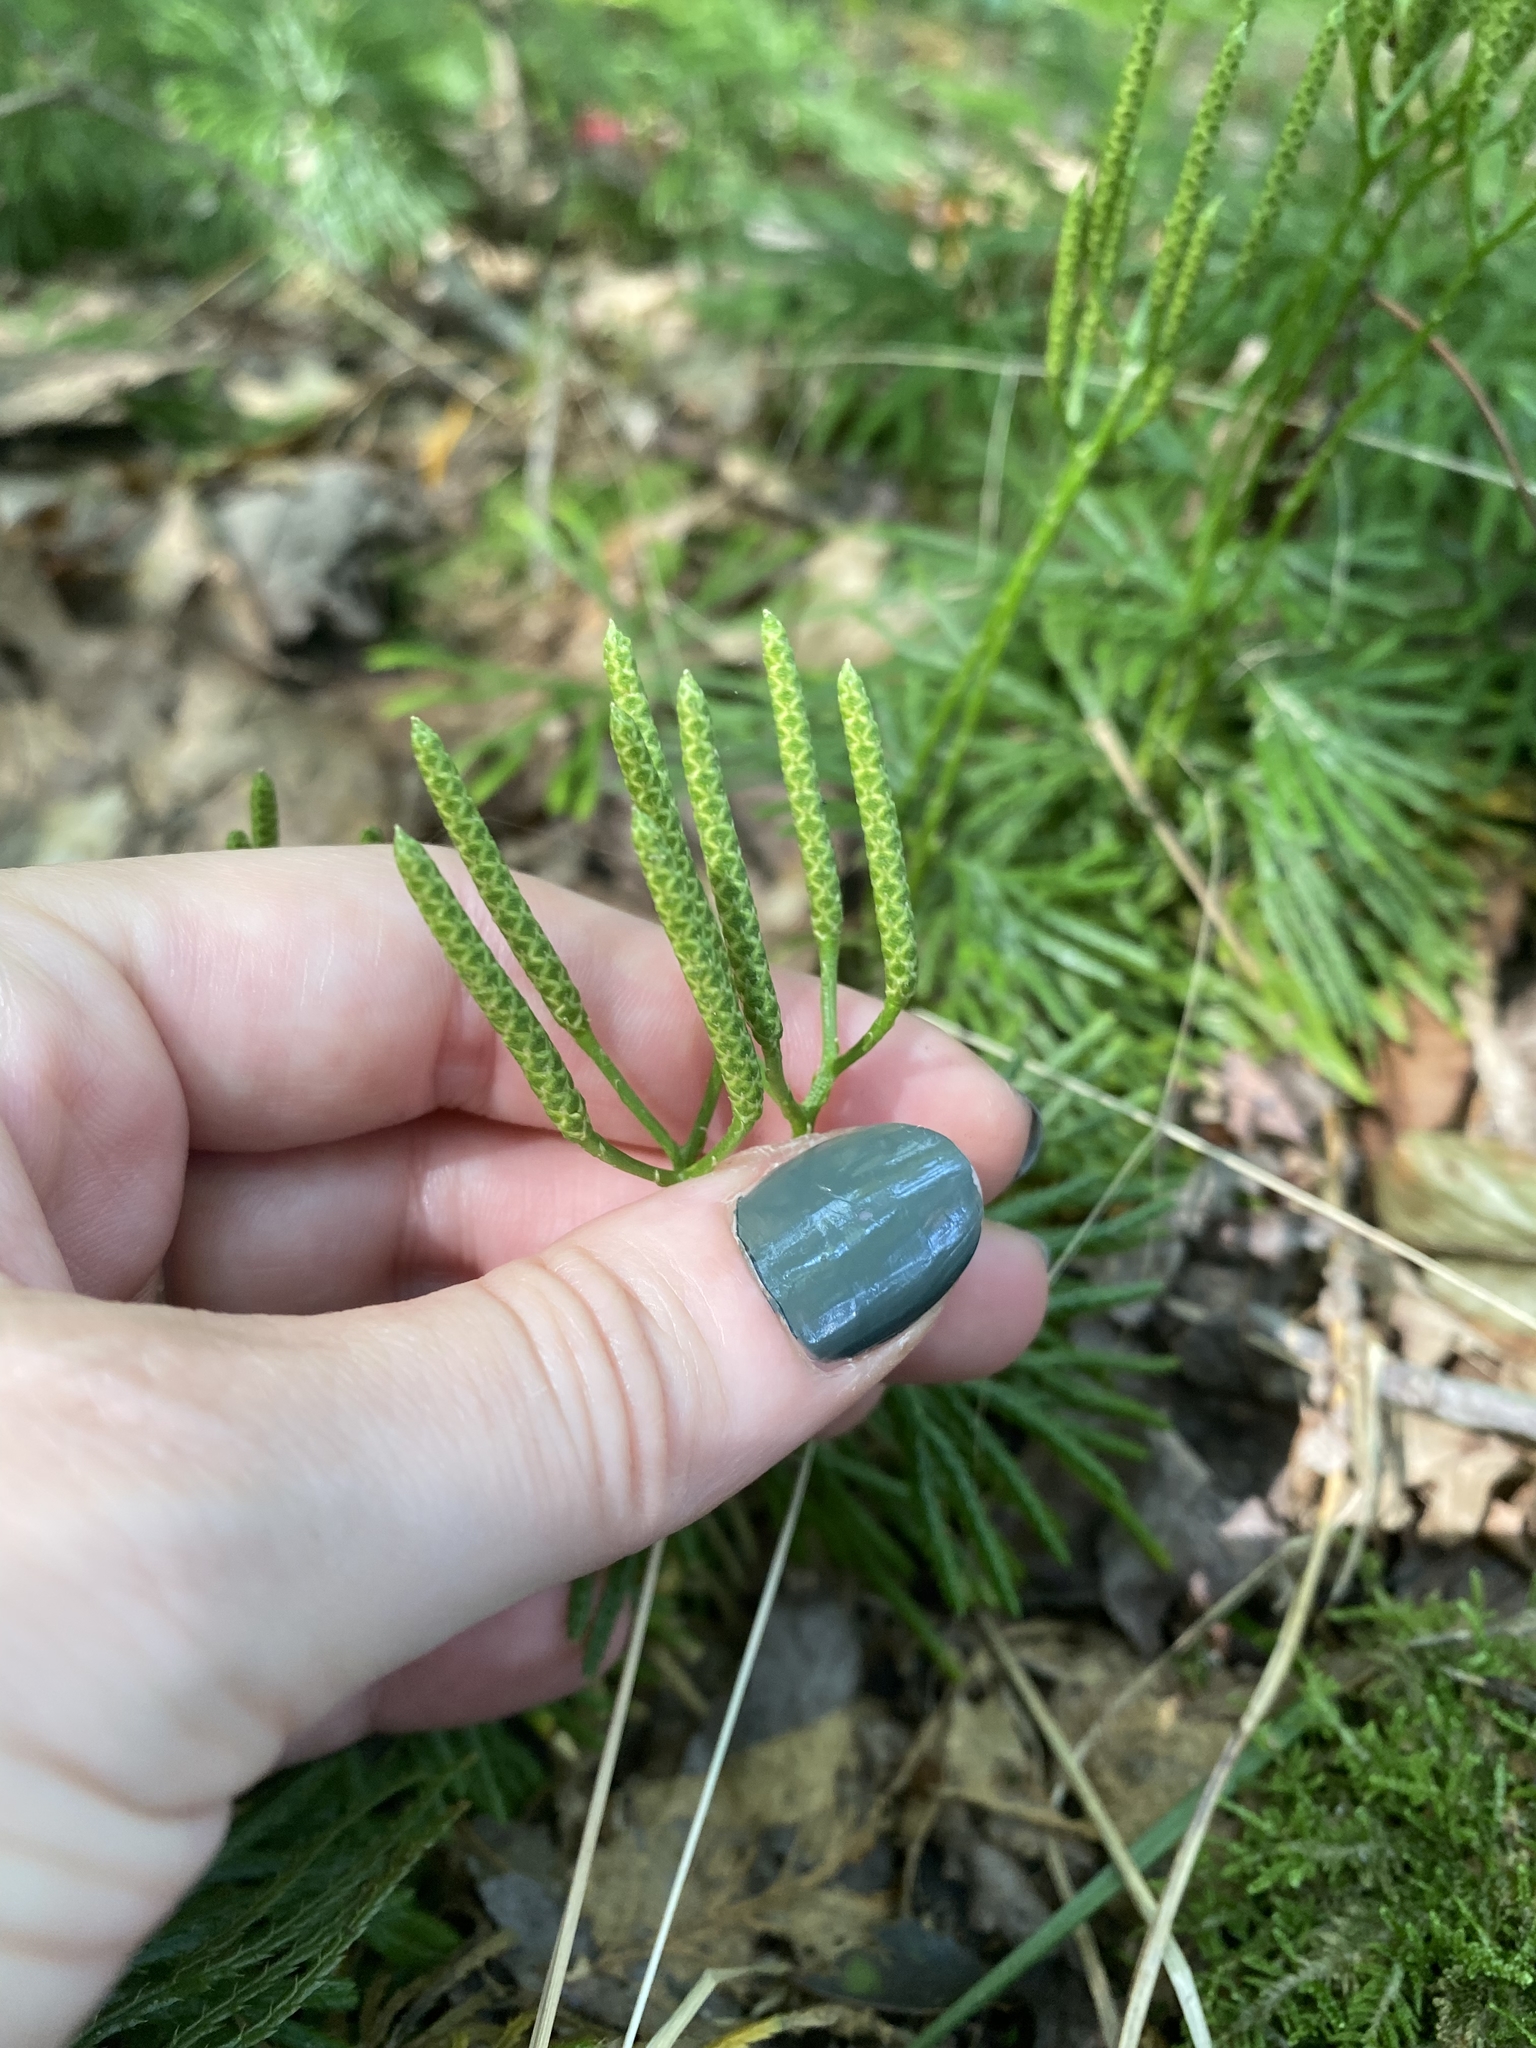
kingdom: Plantae
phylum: Tracheophyta
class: Lycopodiopsida
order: Lycopodiales
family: Lycopodiaceae
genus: Diphasiastrum
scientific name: Diphasiastrum digitatum
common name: Southern running-pine
